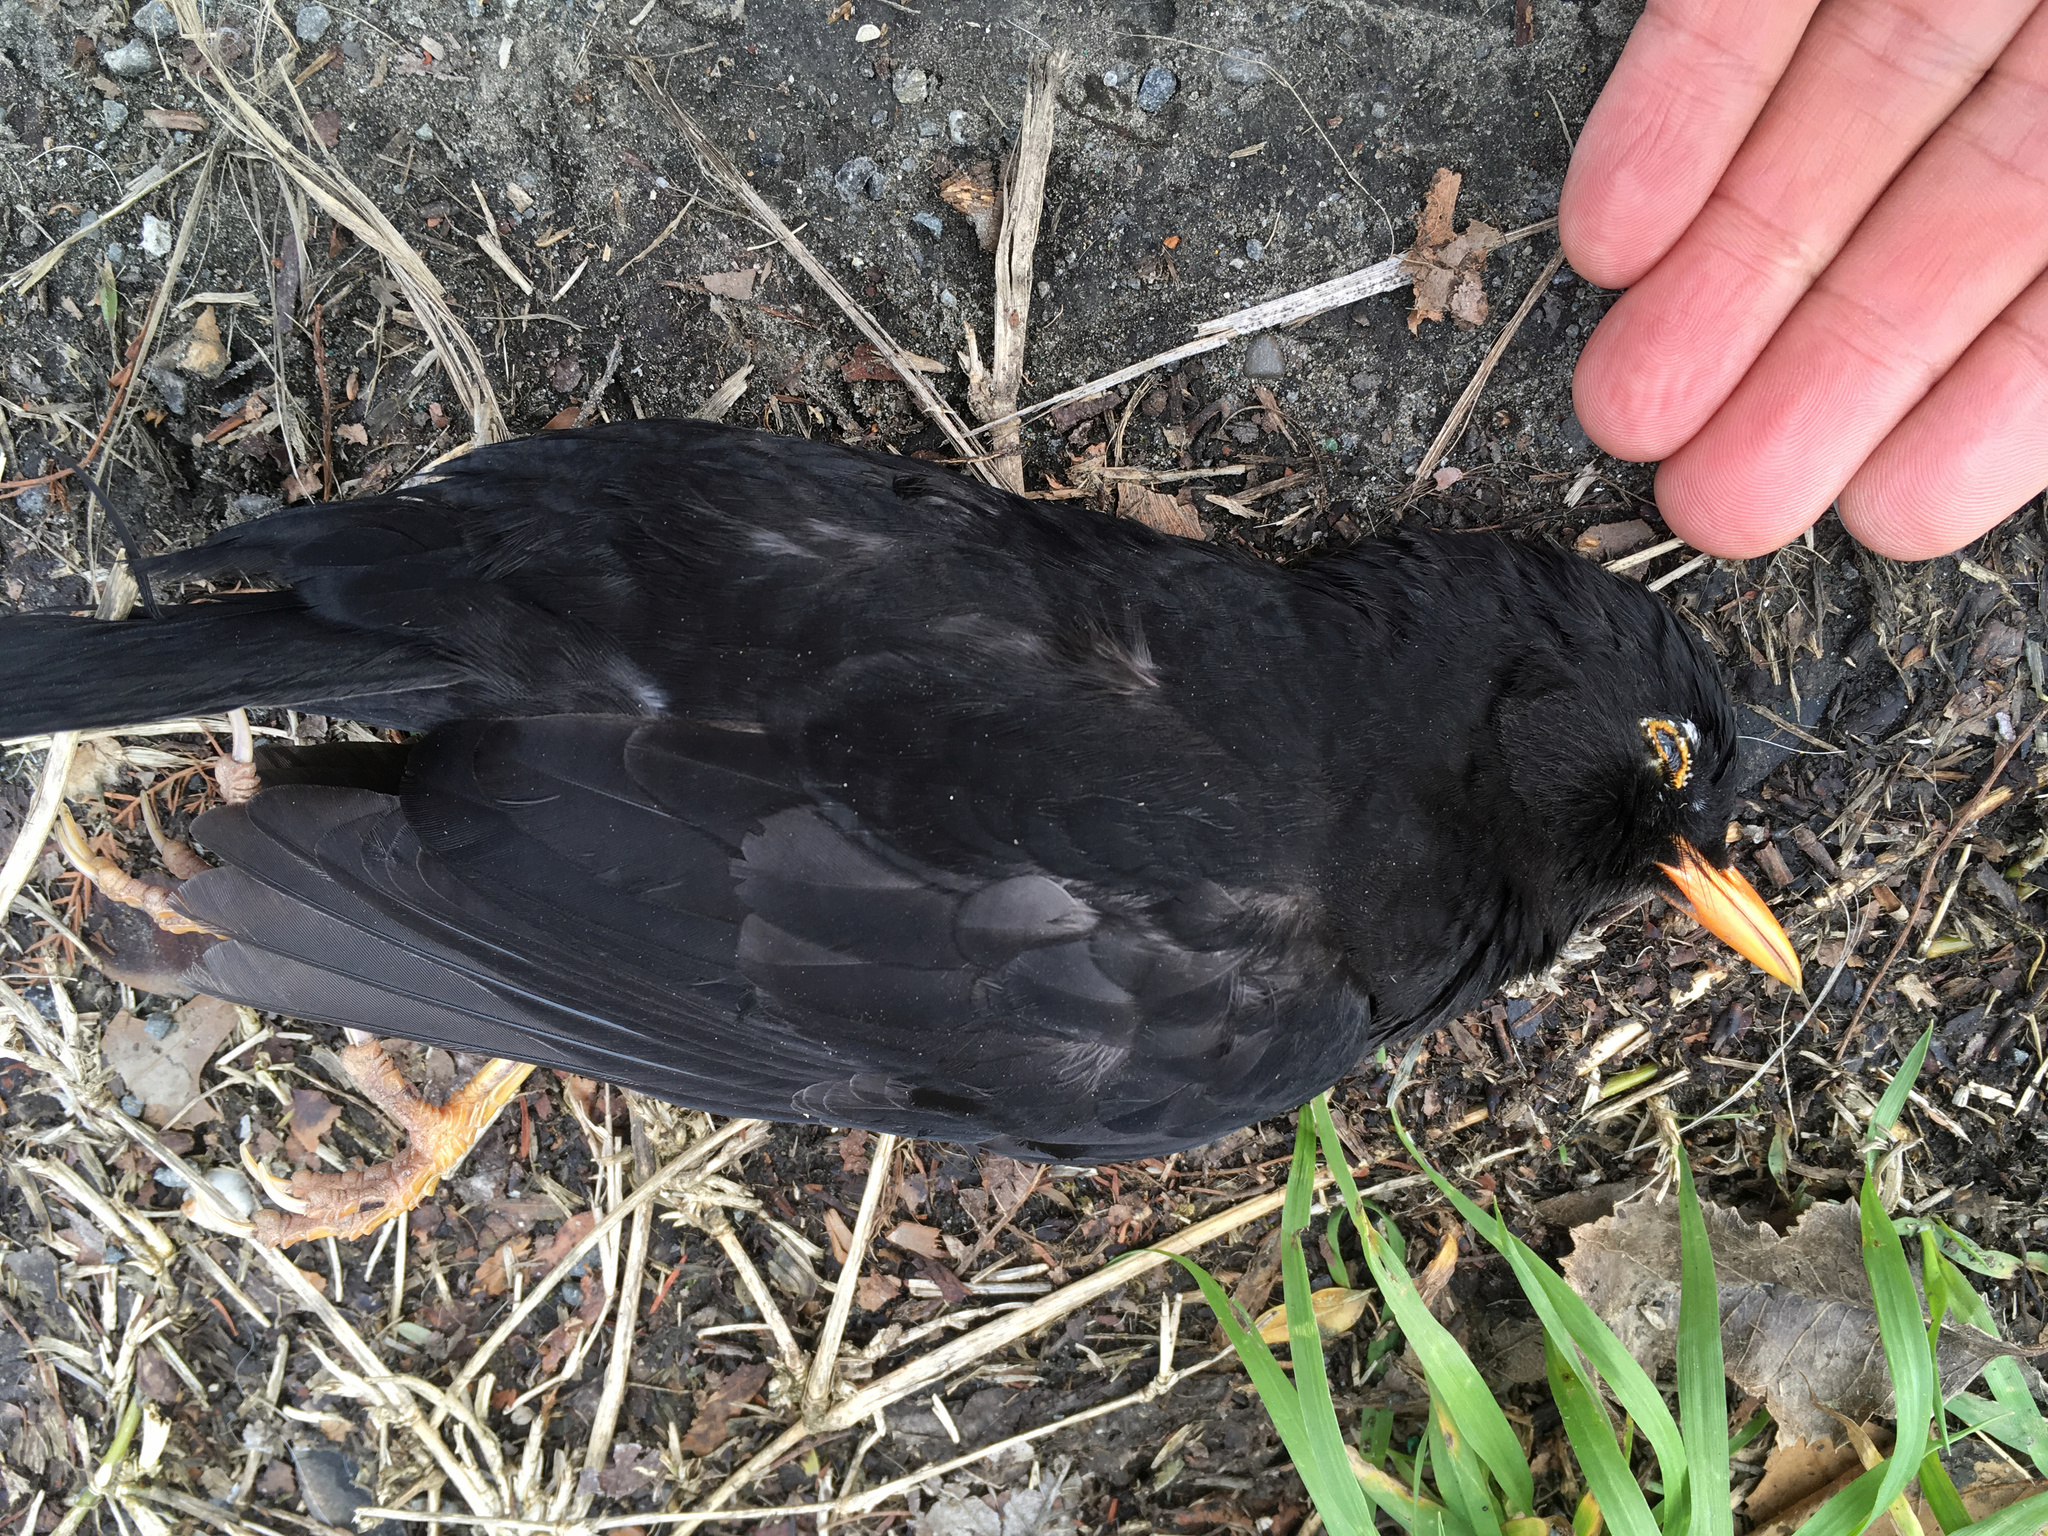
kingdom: Animalia
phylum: Chordata
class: Aves
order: Passeriformes
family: Turdidae
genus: Turdus
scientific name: Turdus merula
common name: Common blackbird
